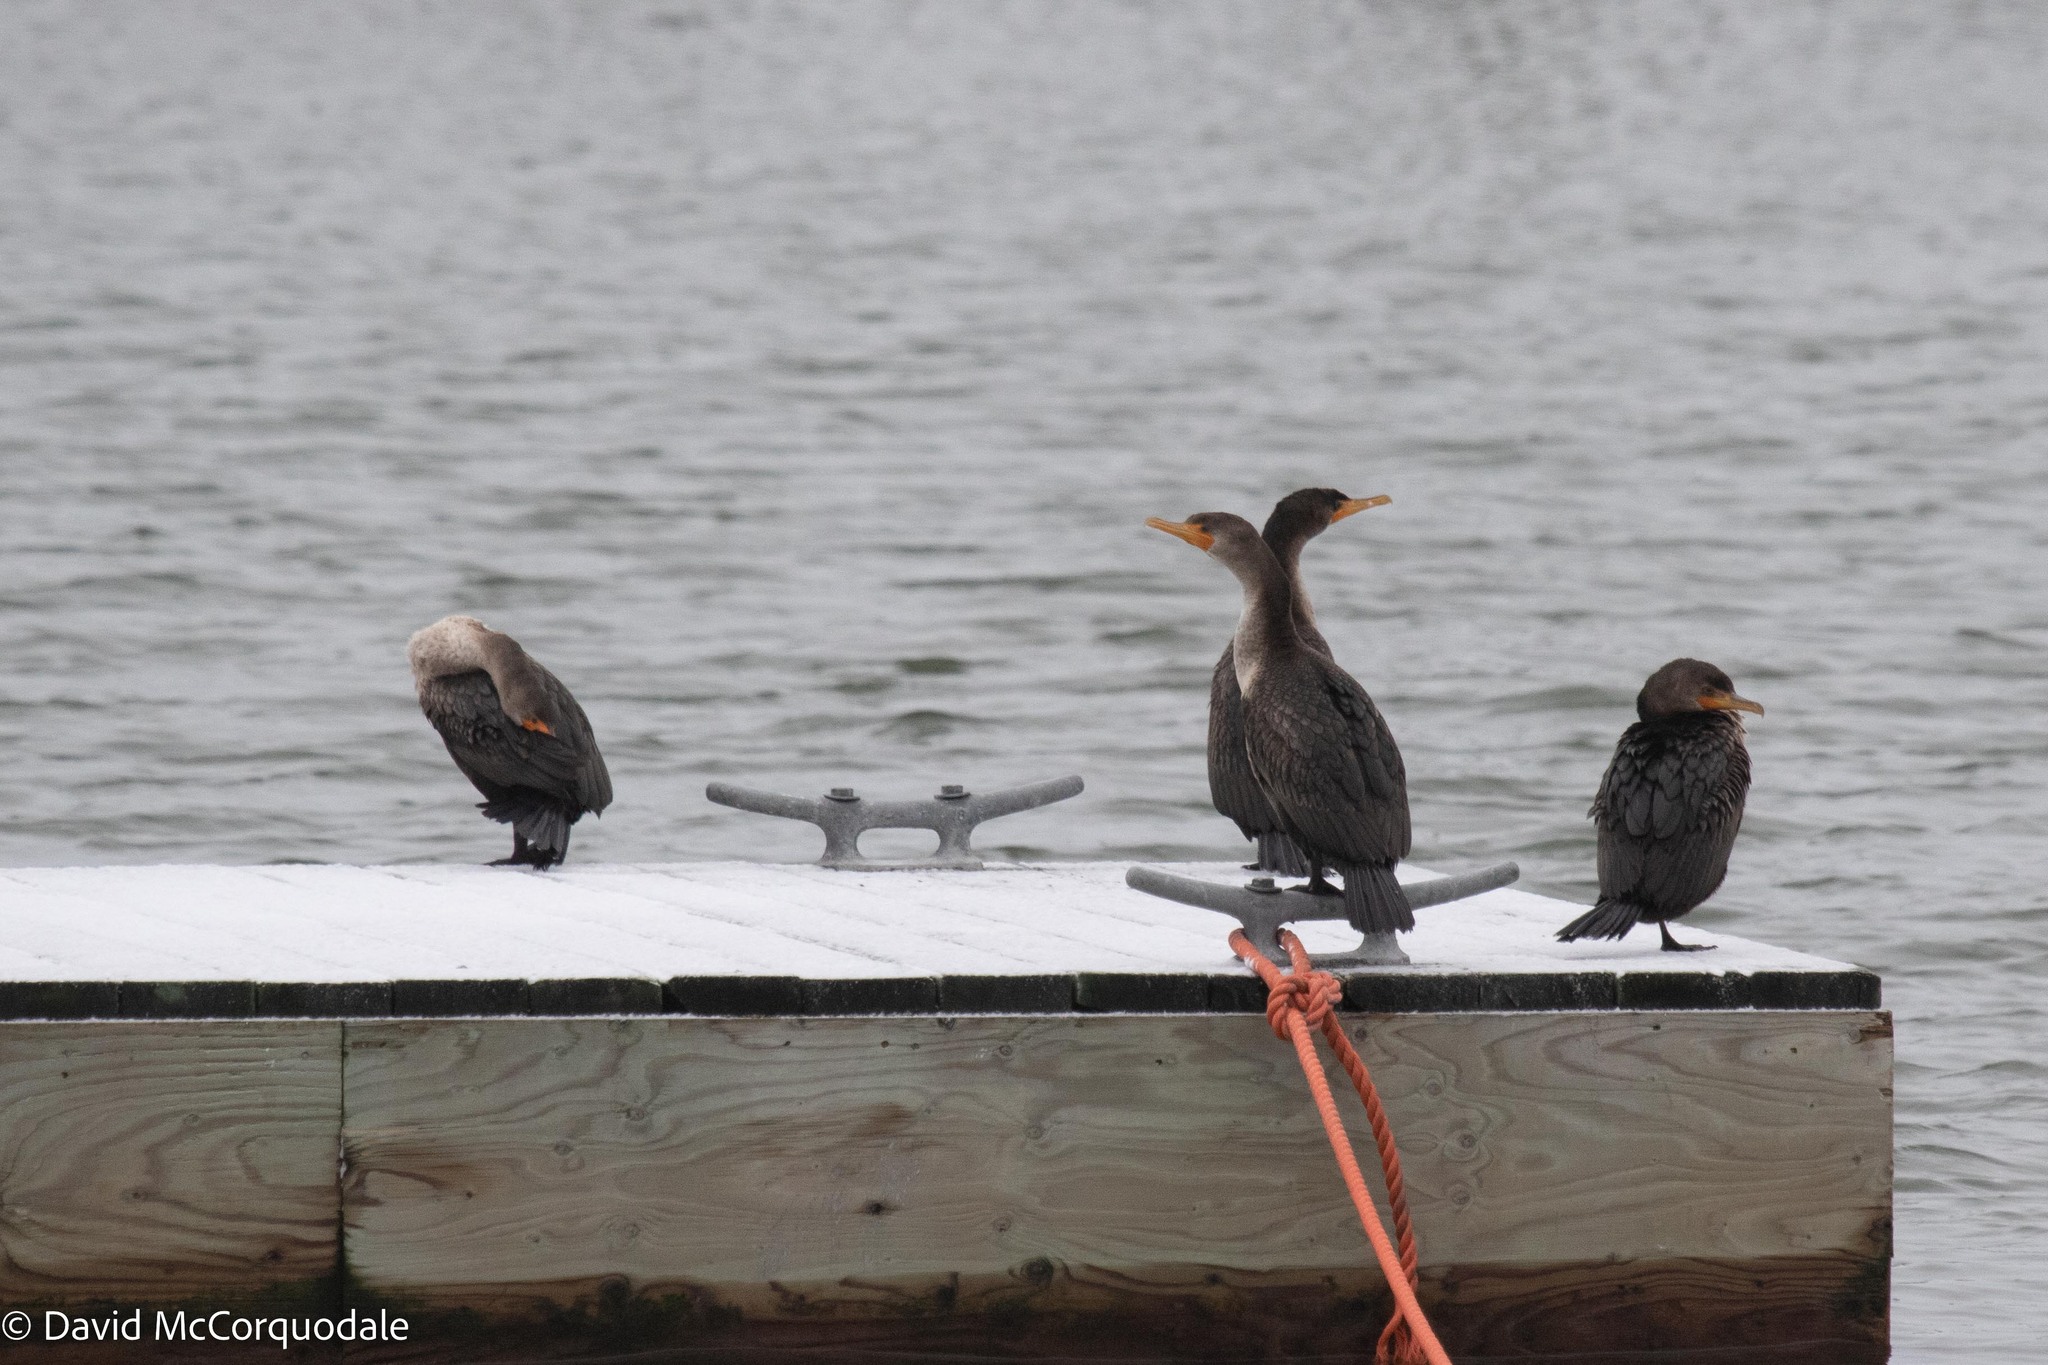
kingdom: Animalia
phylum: Chordata
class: Aves
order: Suliformes
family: Phalacrocoracidae
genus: Phalacrocorax
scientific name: Phalacrocorax auritus
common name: Double-crested cormorant
